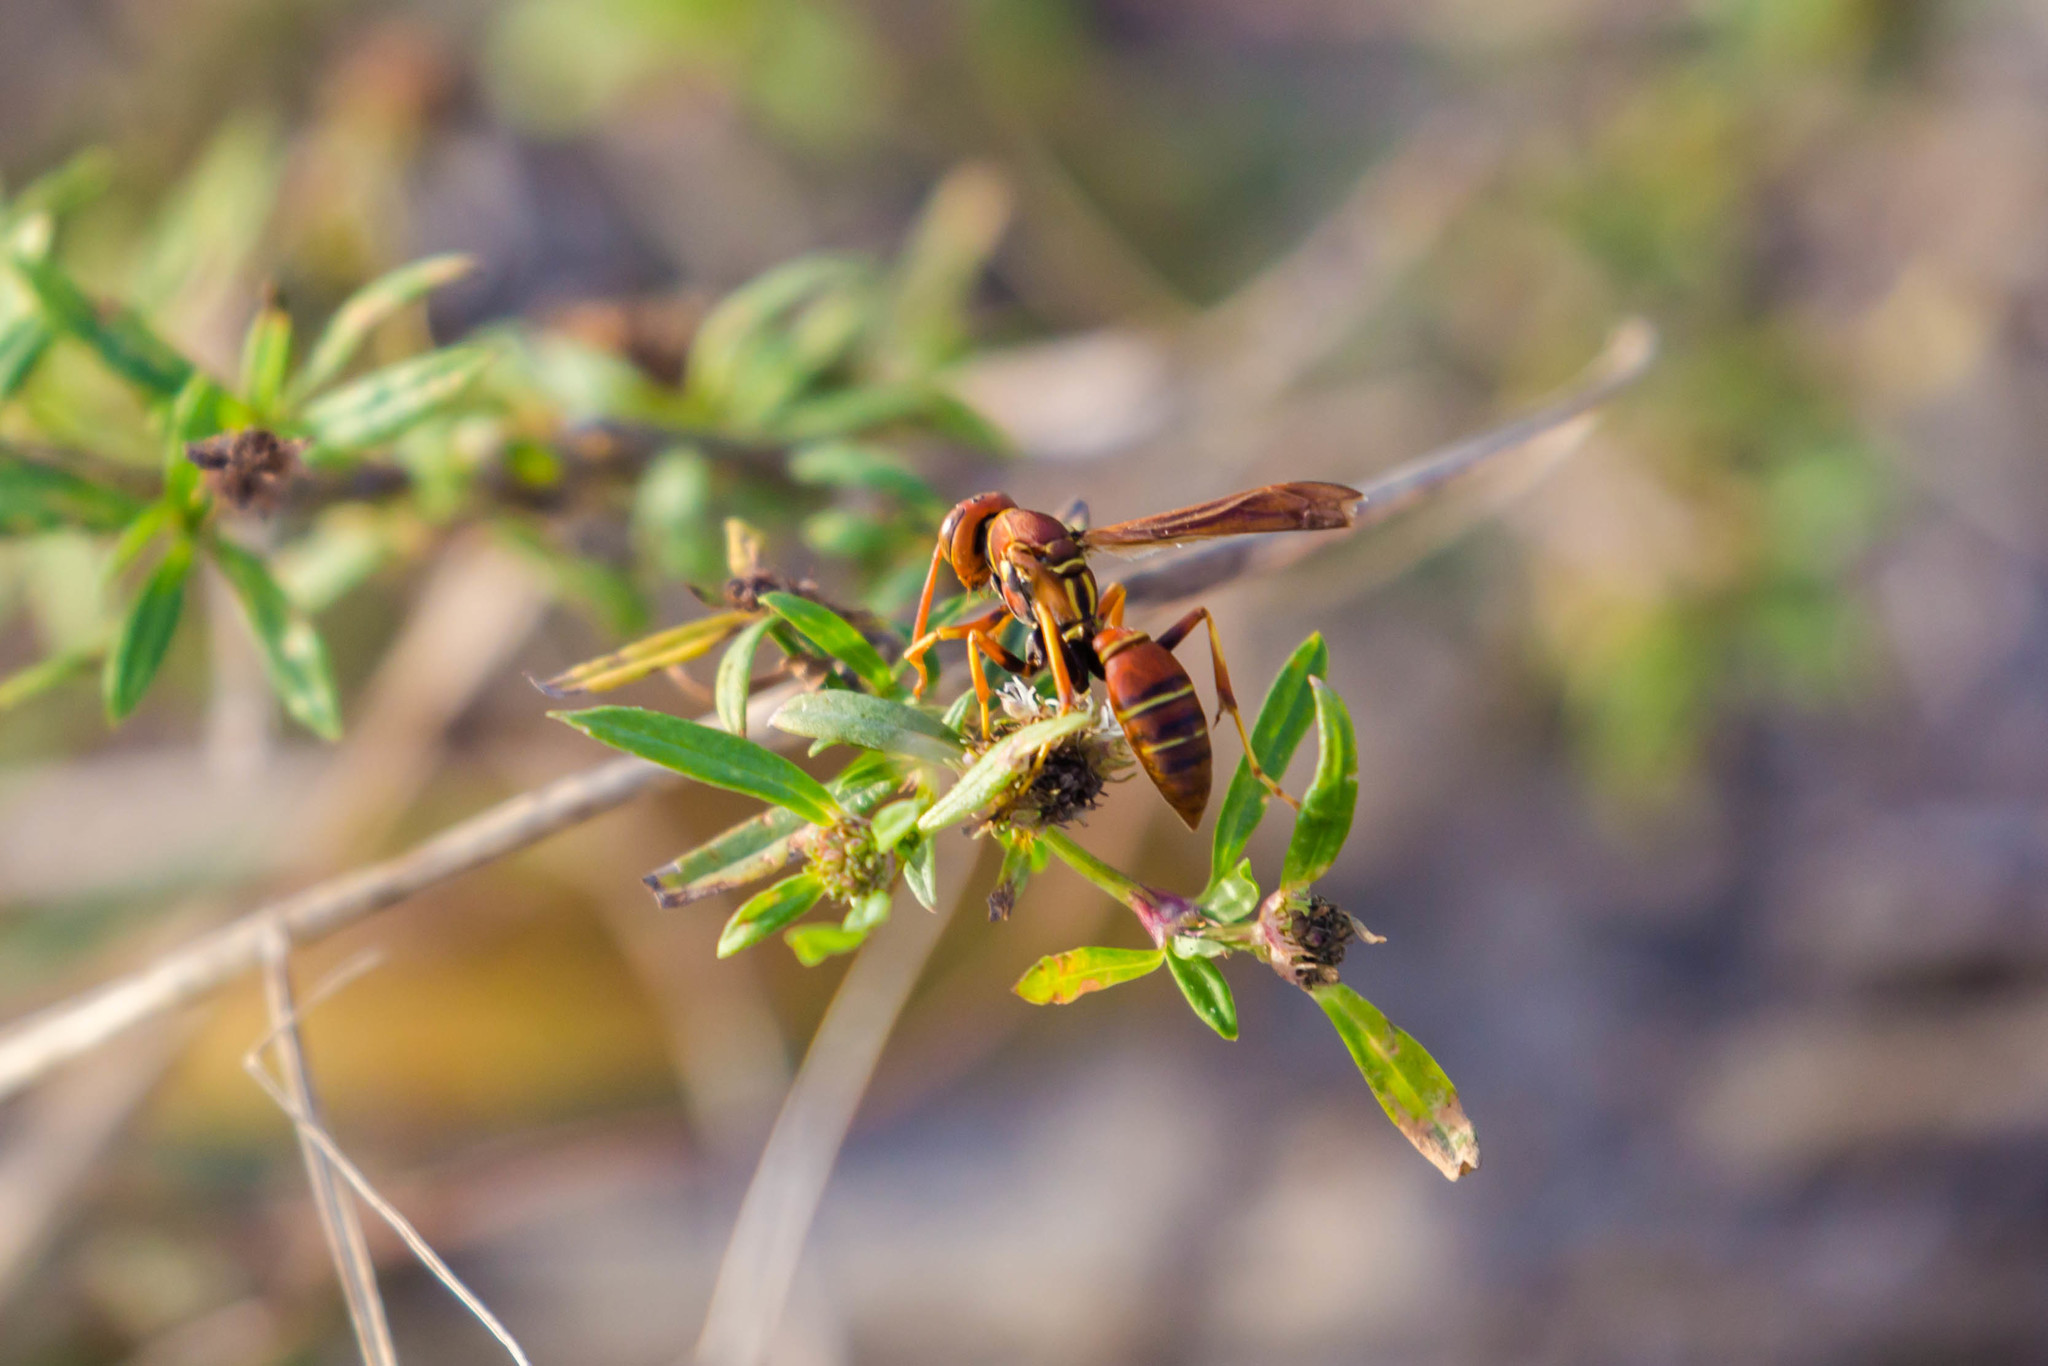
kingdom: Animalia
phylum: Arthropoda
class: Insecta
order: Hymenoptera
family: Eumenidae
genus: Polistes
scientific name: Polistes dorsalis
